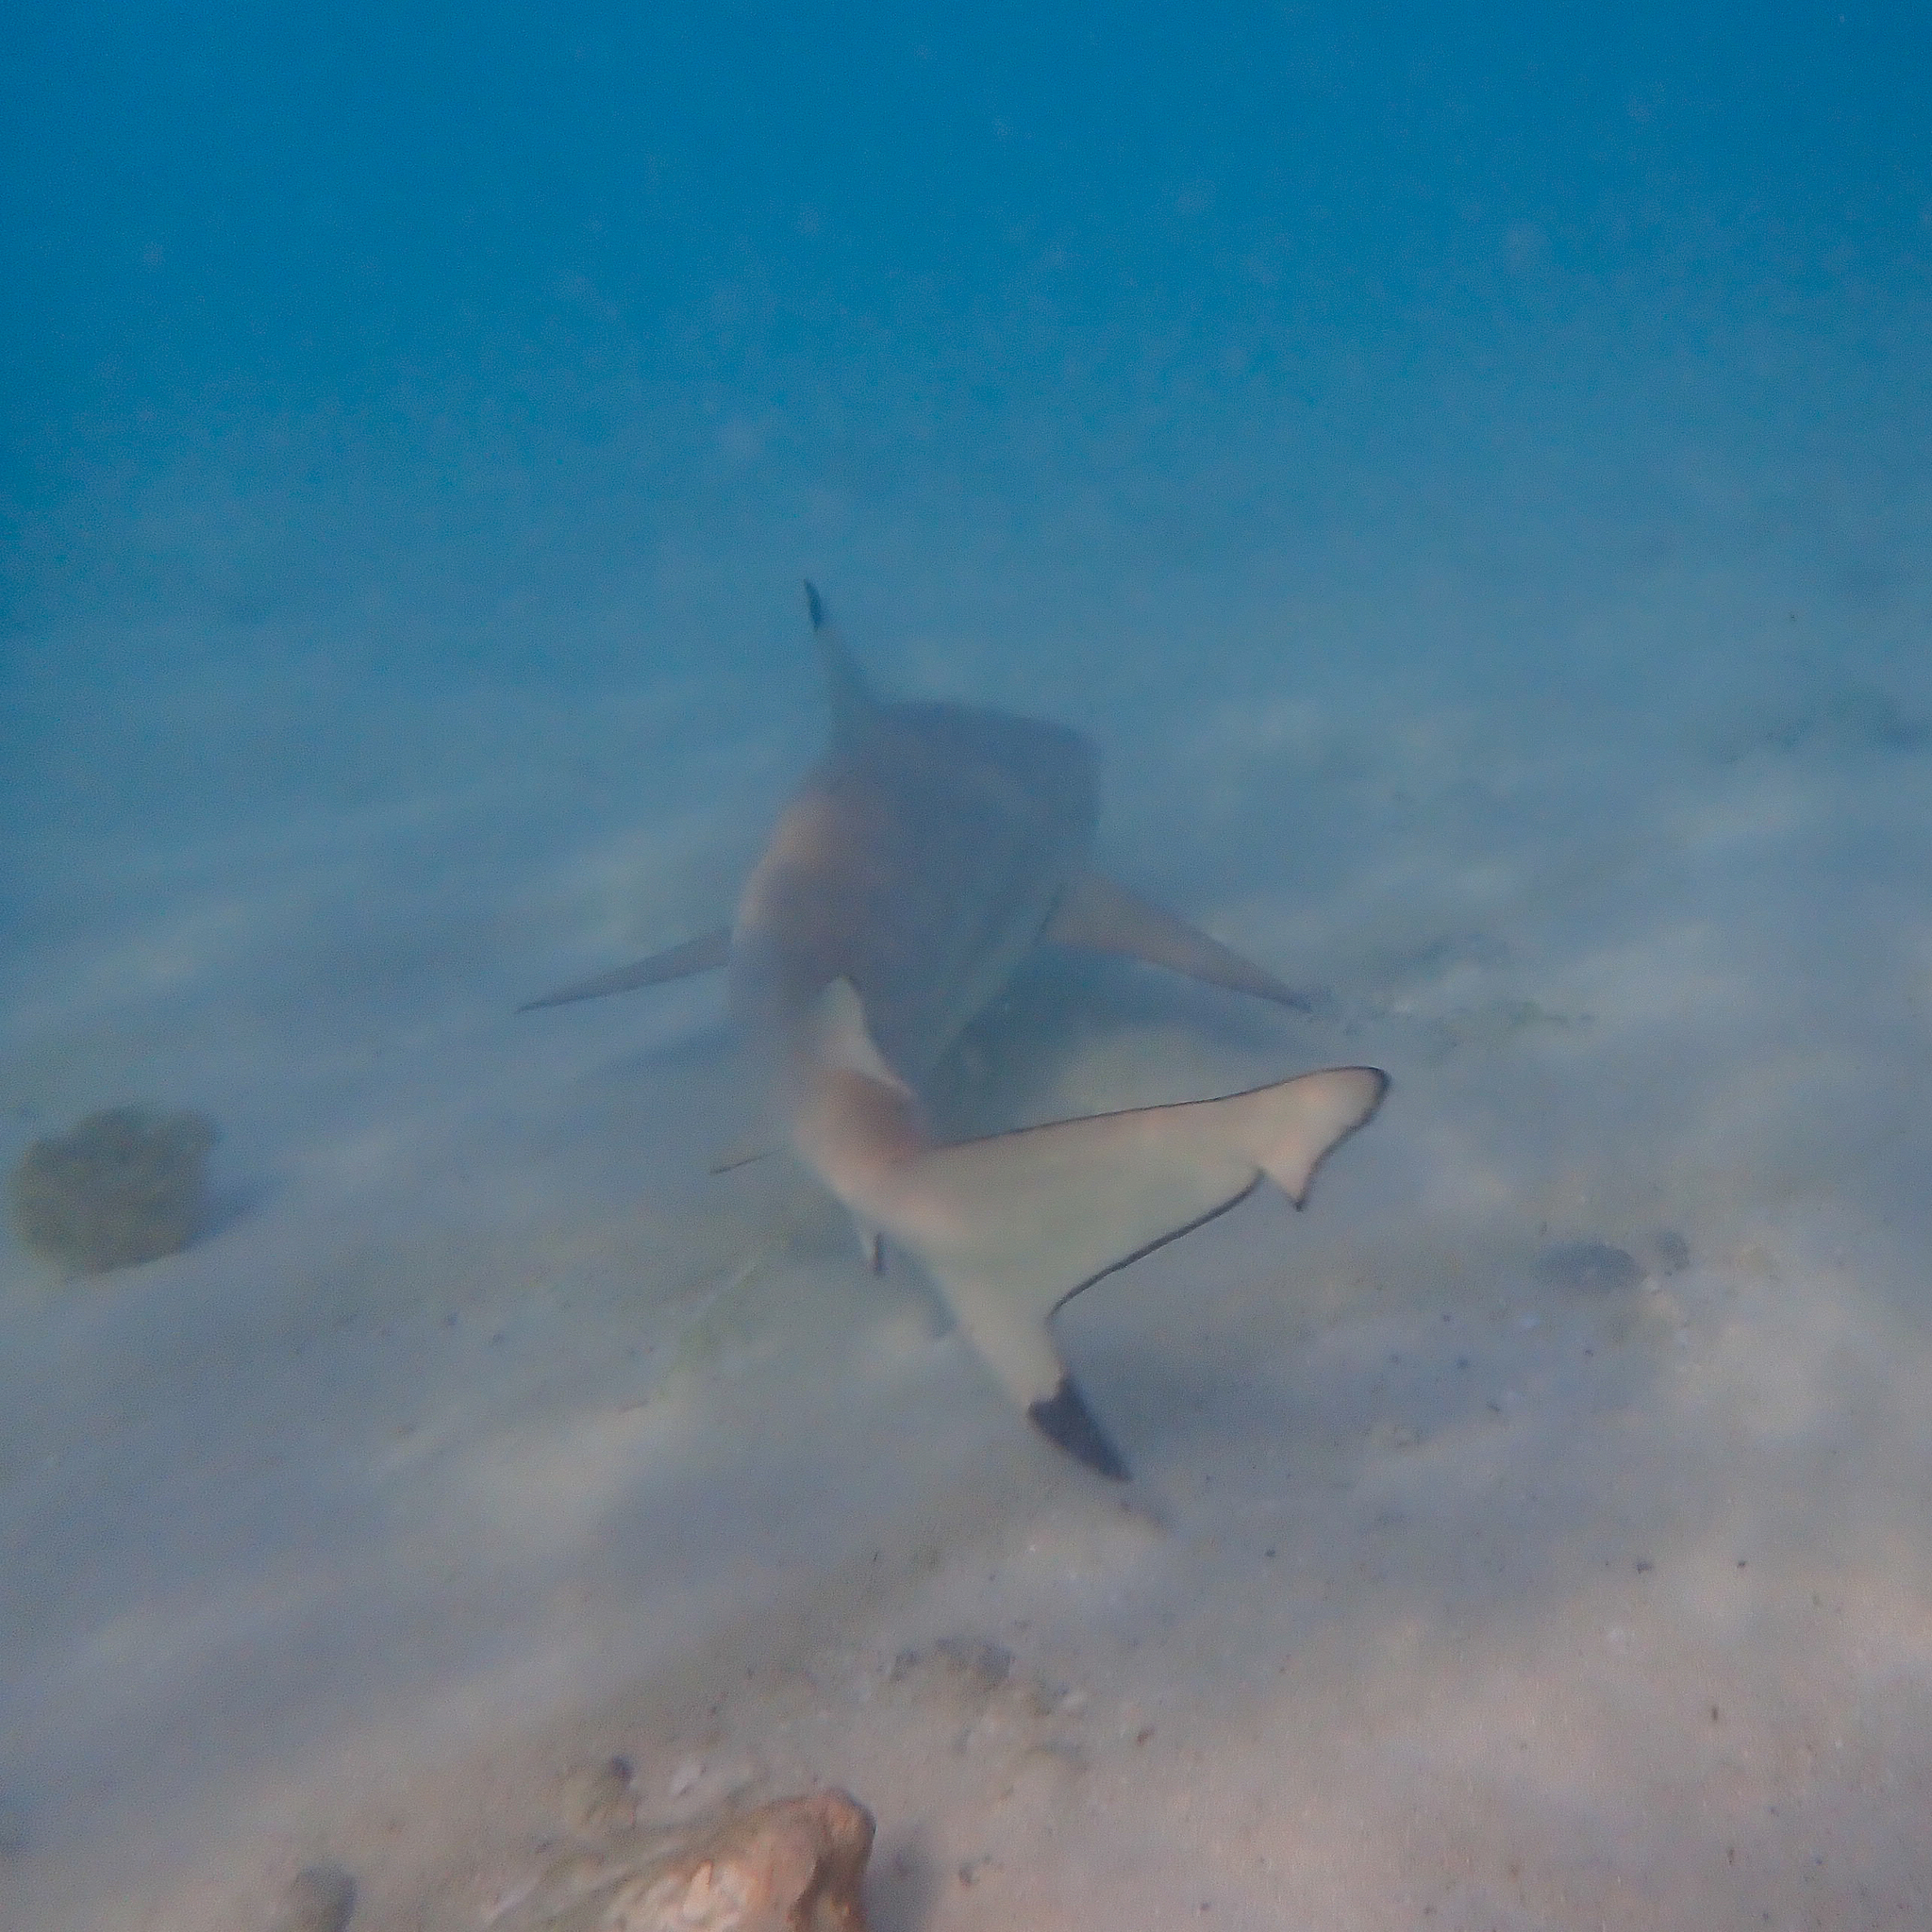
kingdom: Animalia
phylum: Chordata
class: Elasmobranchii
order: Carcharhiniformes
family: Carcharhinidae
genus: Carcharhinus
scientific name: Carcharhinus melanopterus
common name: Blacktip reef shark
